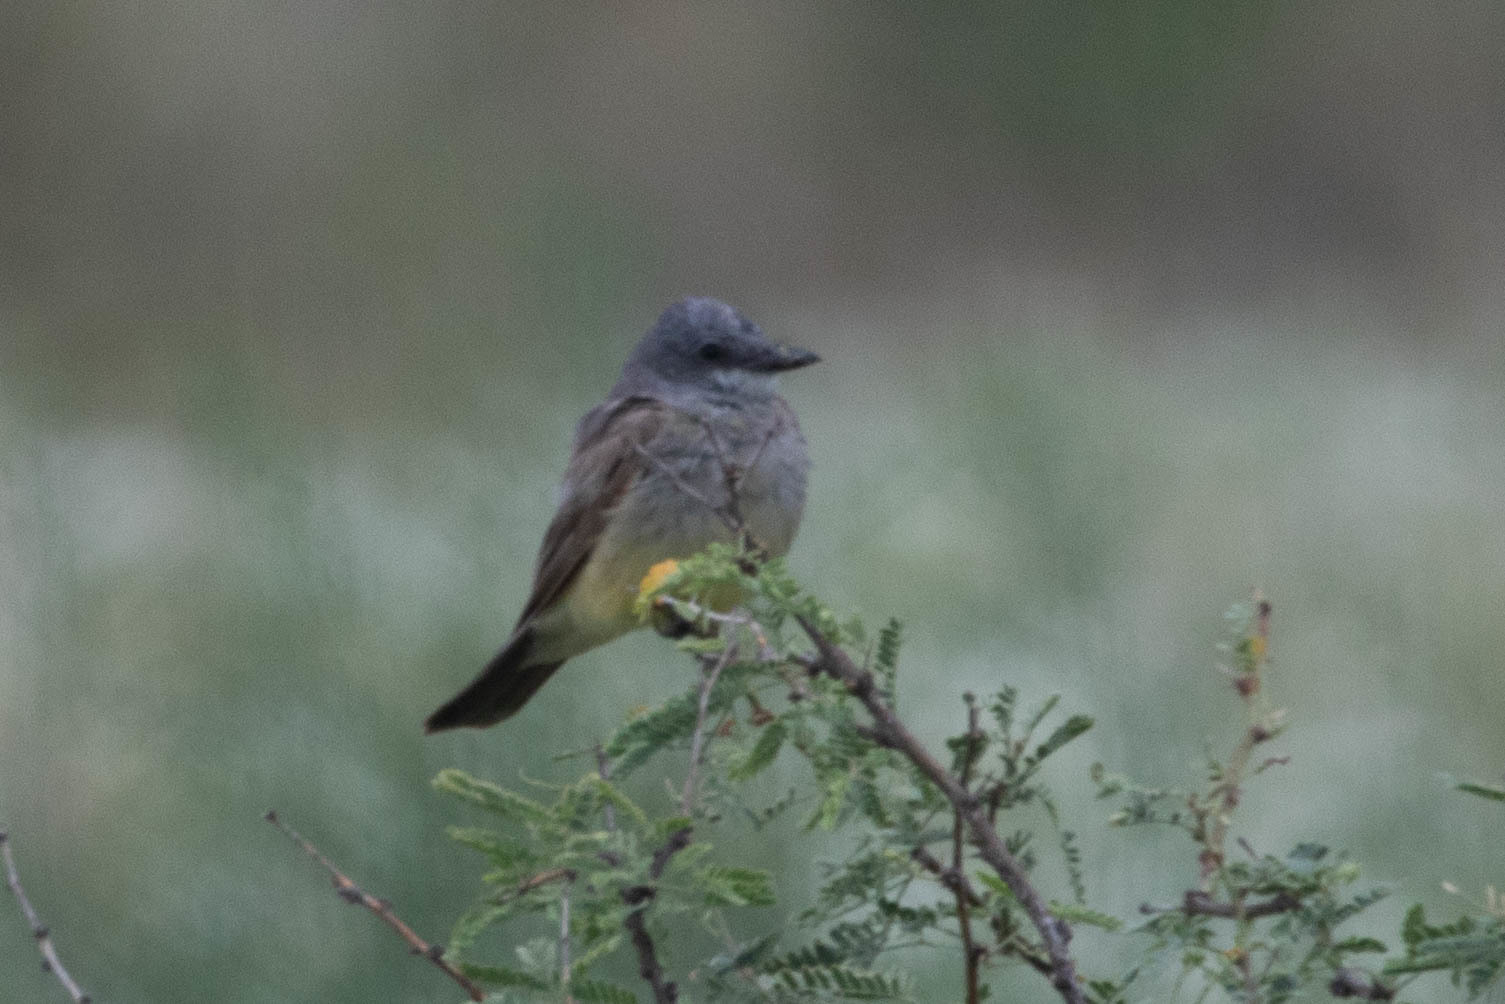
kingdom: Animalia
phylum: Chordata
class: Aves
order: Passeriformes
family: Tyrannidae
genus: Tyrannus
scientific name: Tyrannus vociferans
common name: Cassin's kingbird
